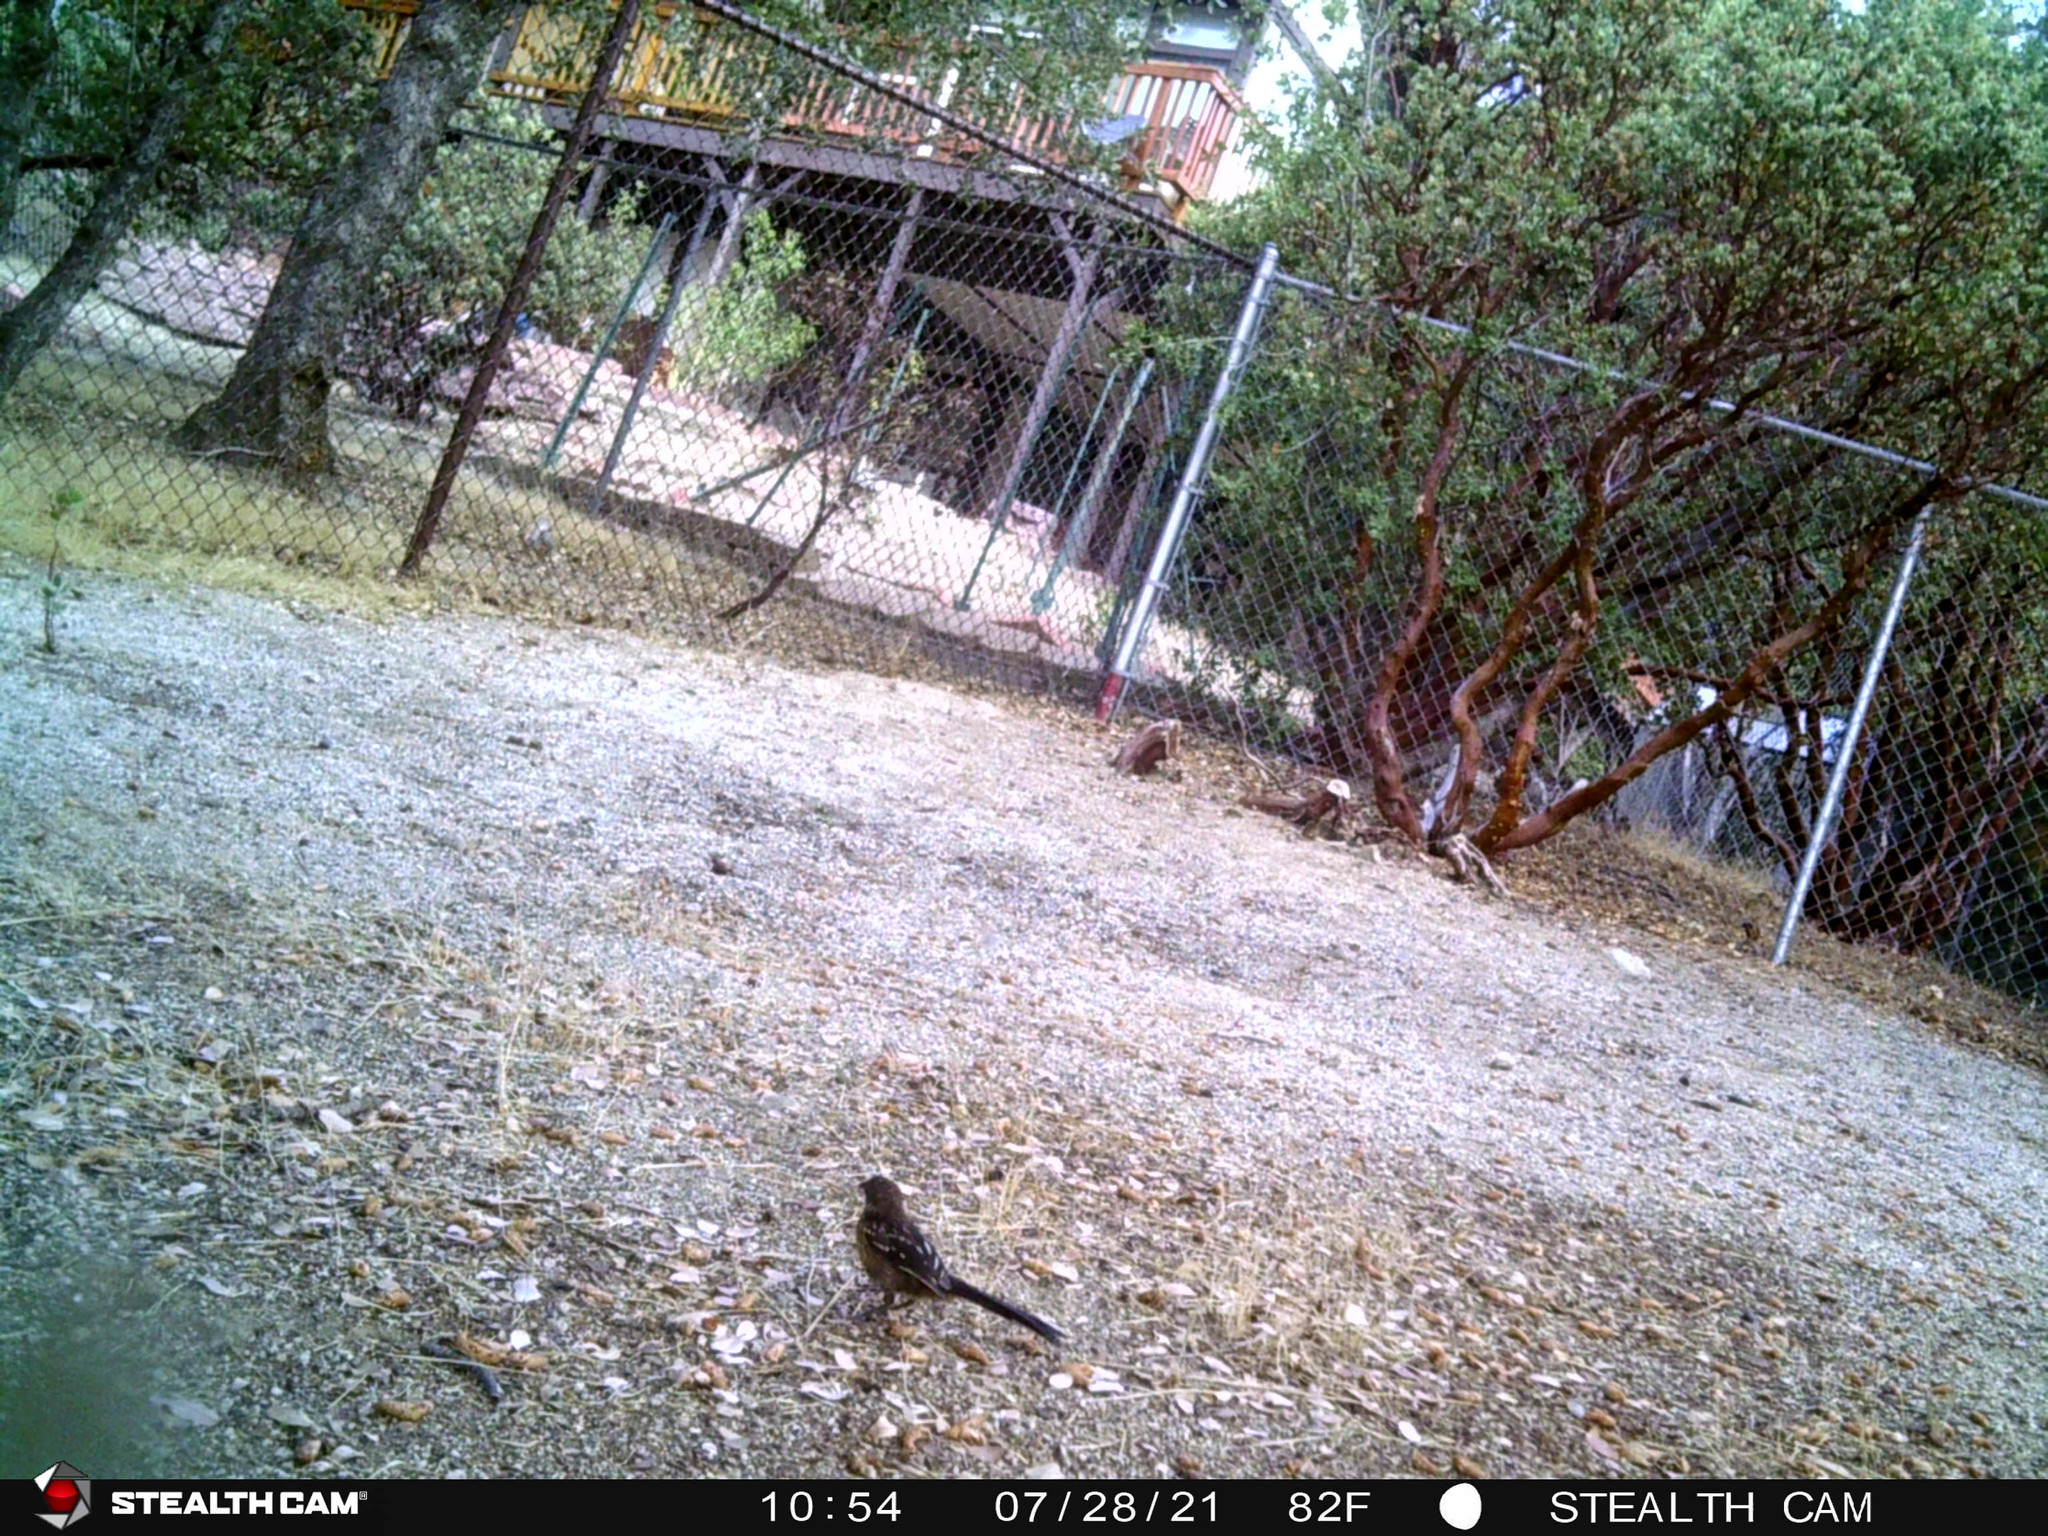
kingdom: Animalia
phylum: Chordata
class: Aves
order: Passeriformes
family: Passerellidae
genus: Pipilo
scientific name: Pipilo maculatus
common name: Spotted towhee
